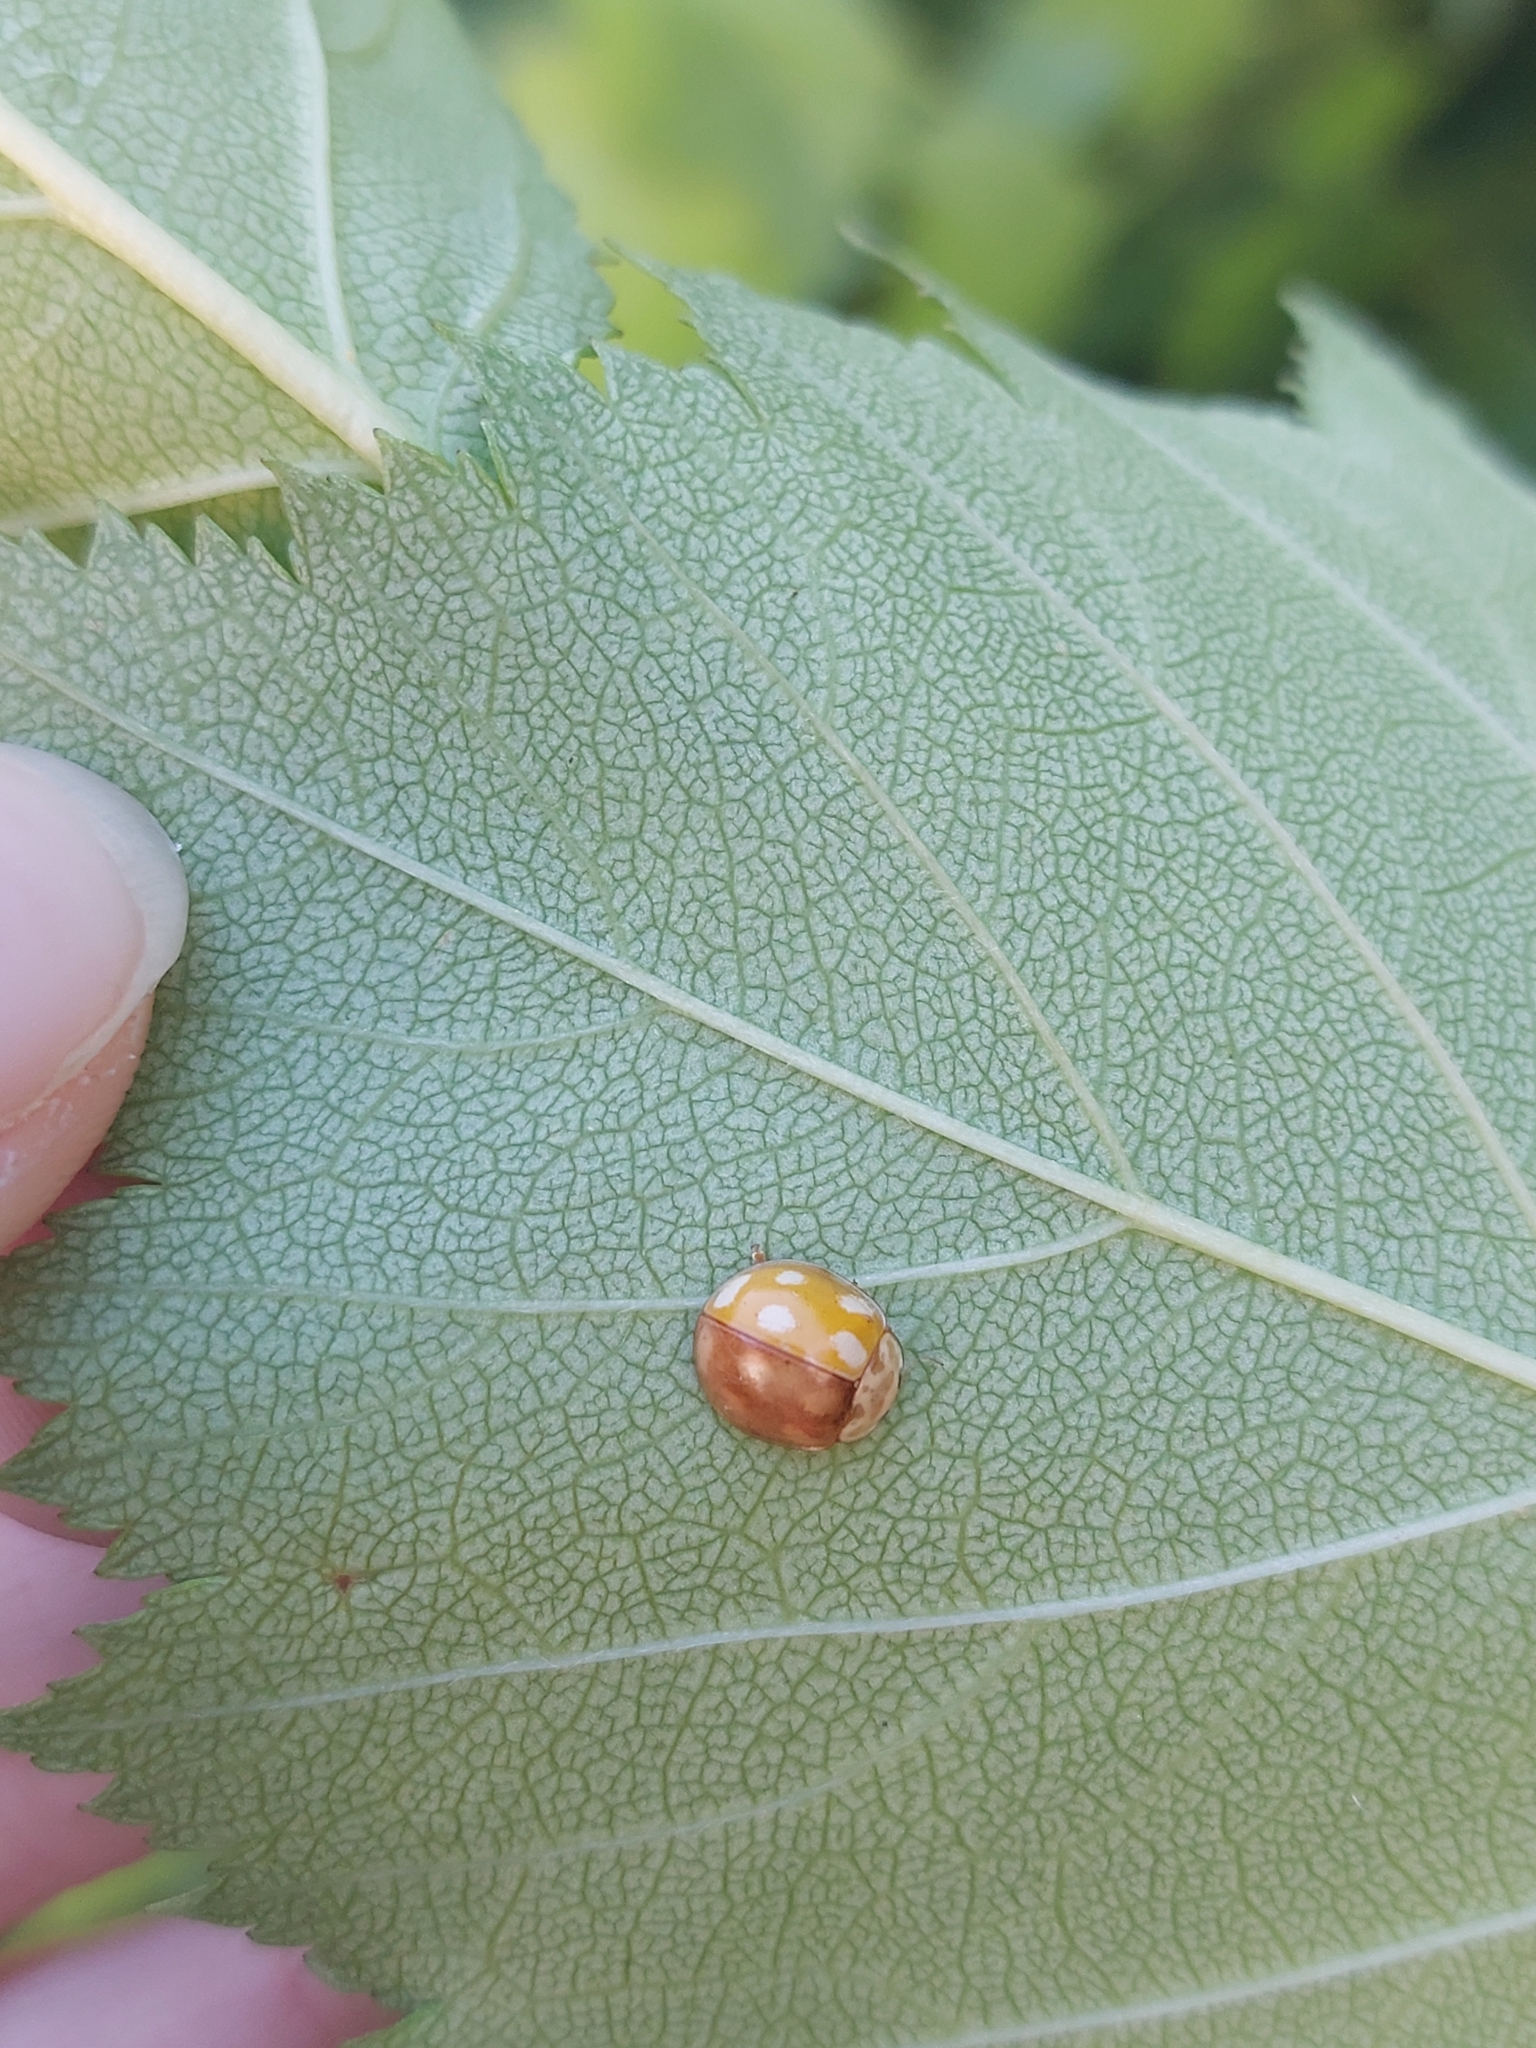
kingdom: Animalia
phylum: Arthropoda
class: Insecta
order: Coleoptera
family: Coccinellidae
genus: Calvia
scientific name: Calvia decemguttata
